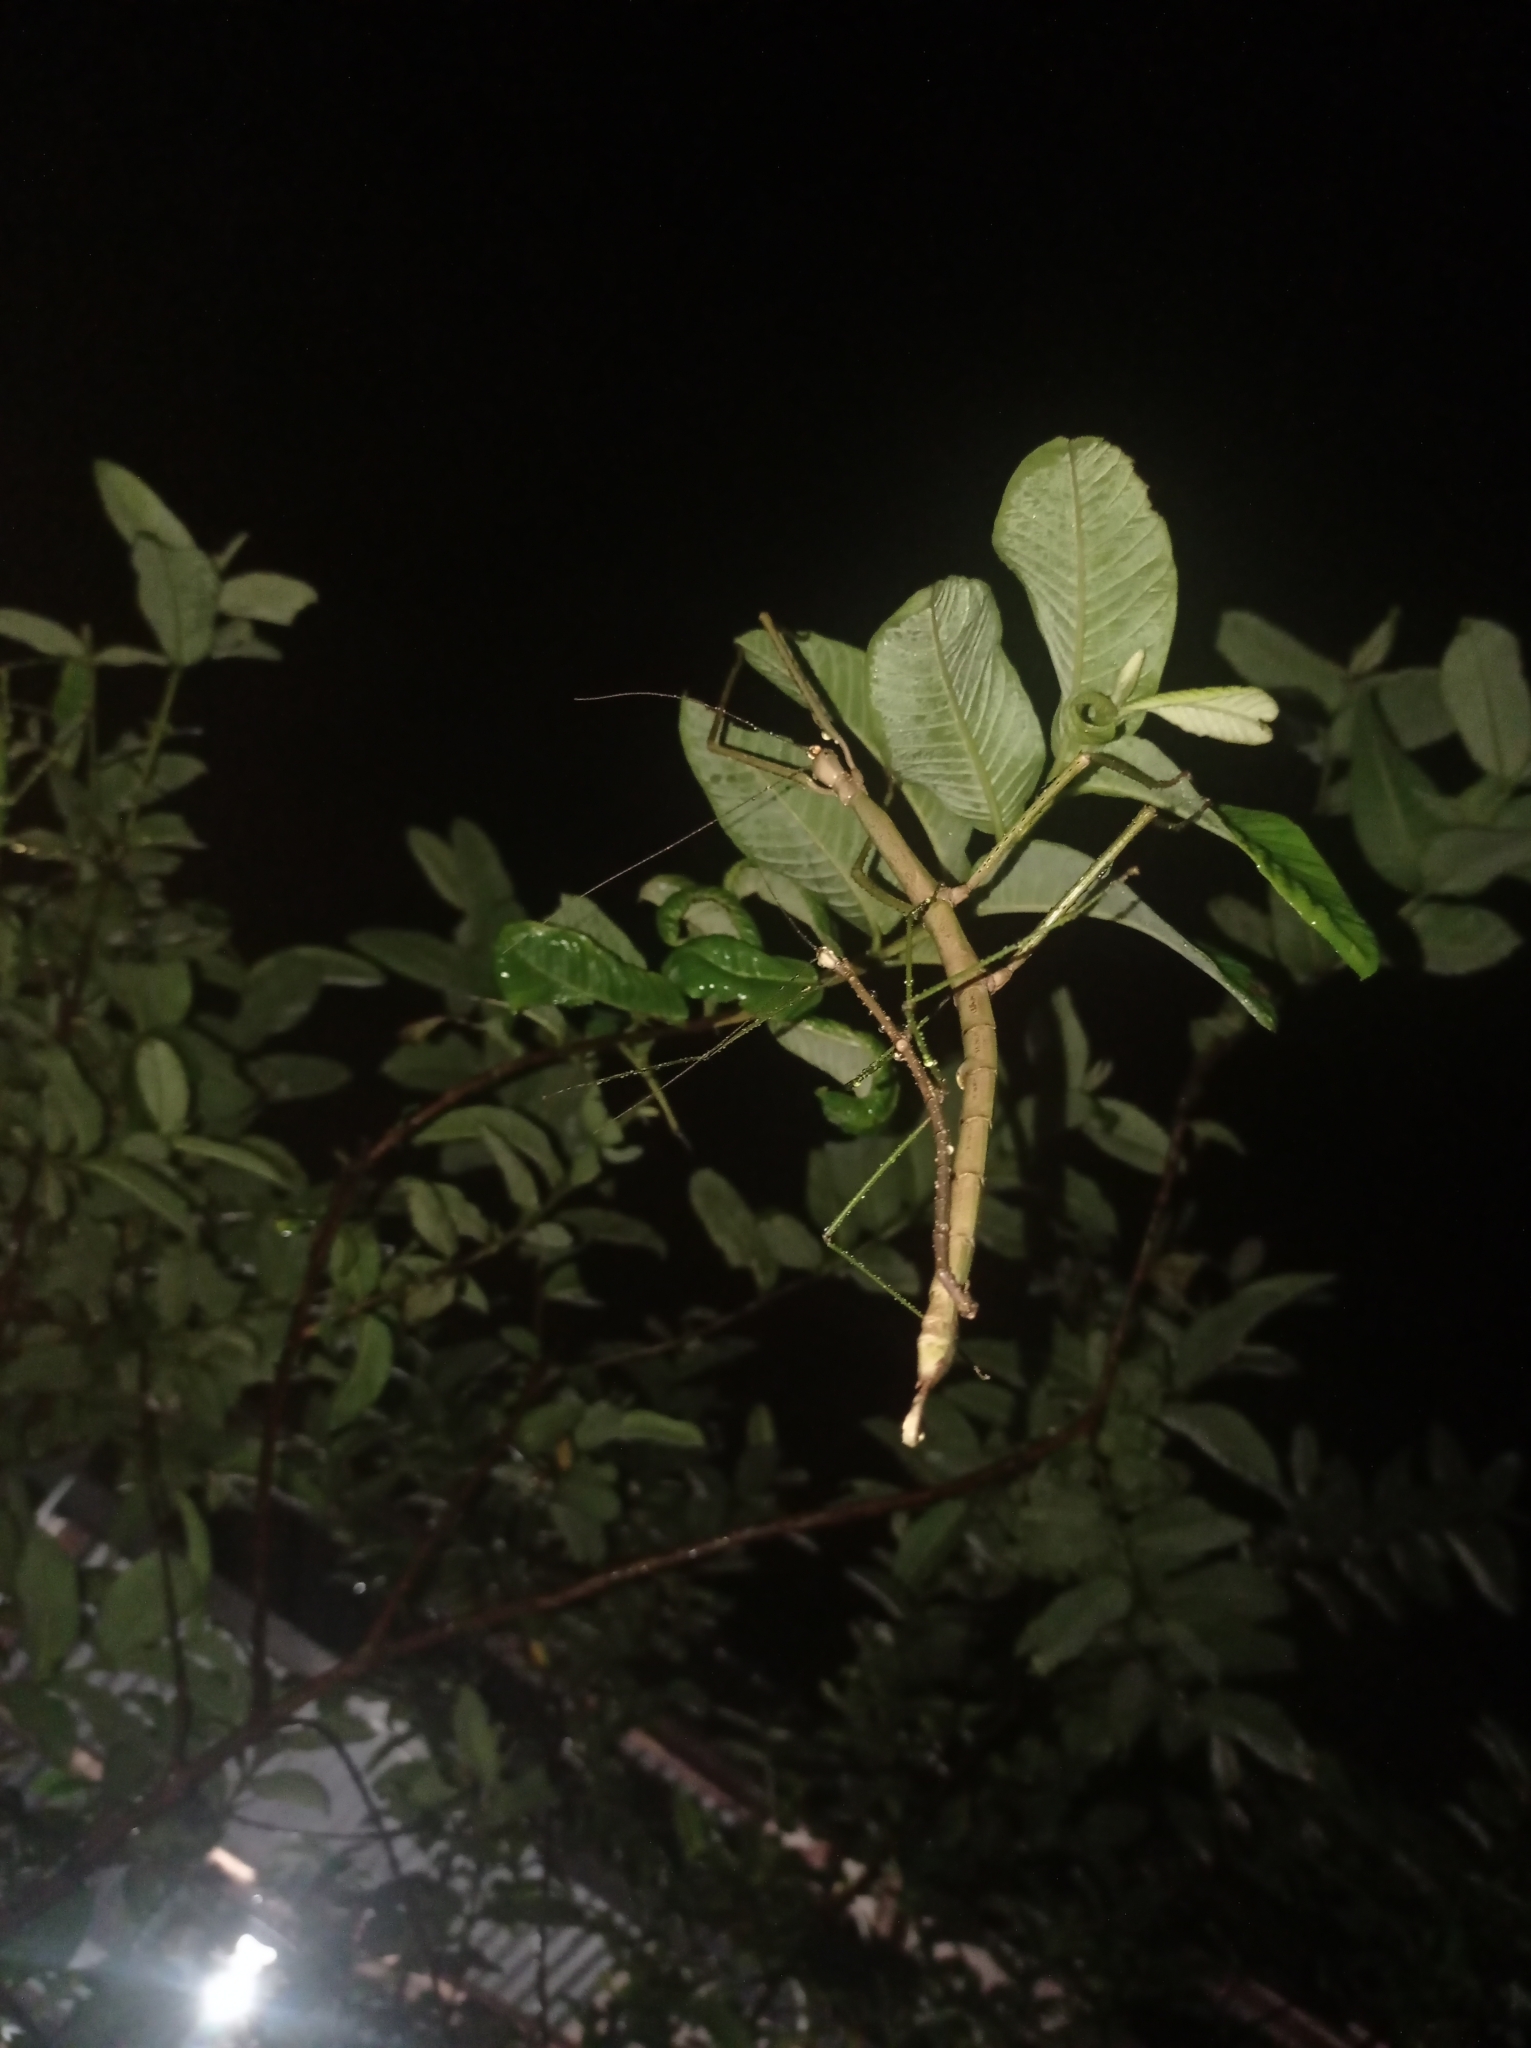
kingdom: Animalia
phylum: Arthropoda
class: Insecta
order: Phasmida
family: Phasmatidae
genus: Nesiophasma
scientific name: Nesiophasma
